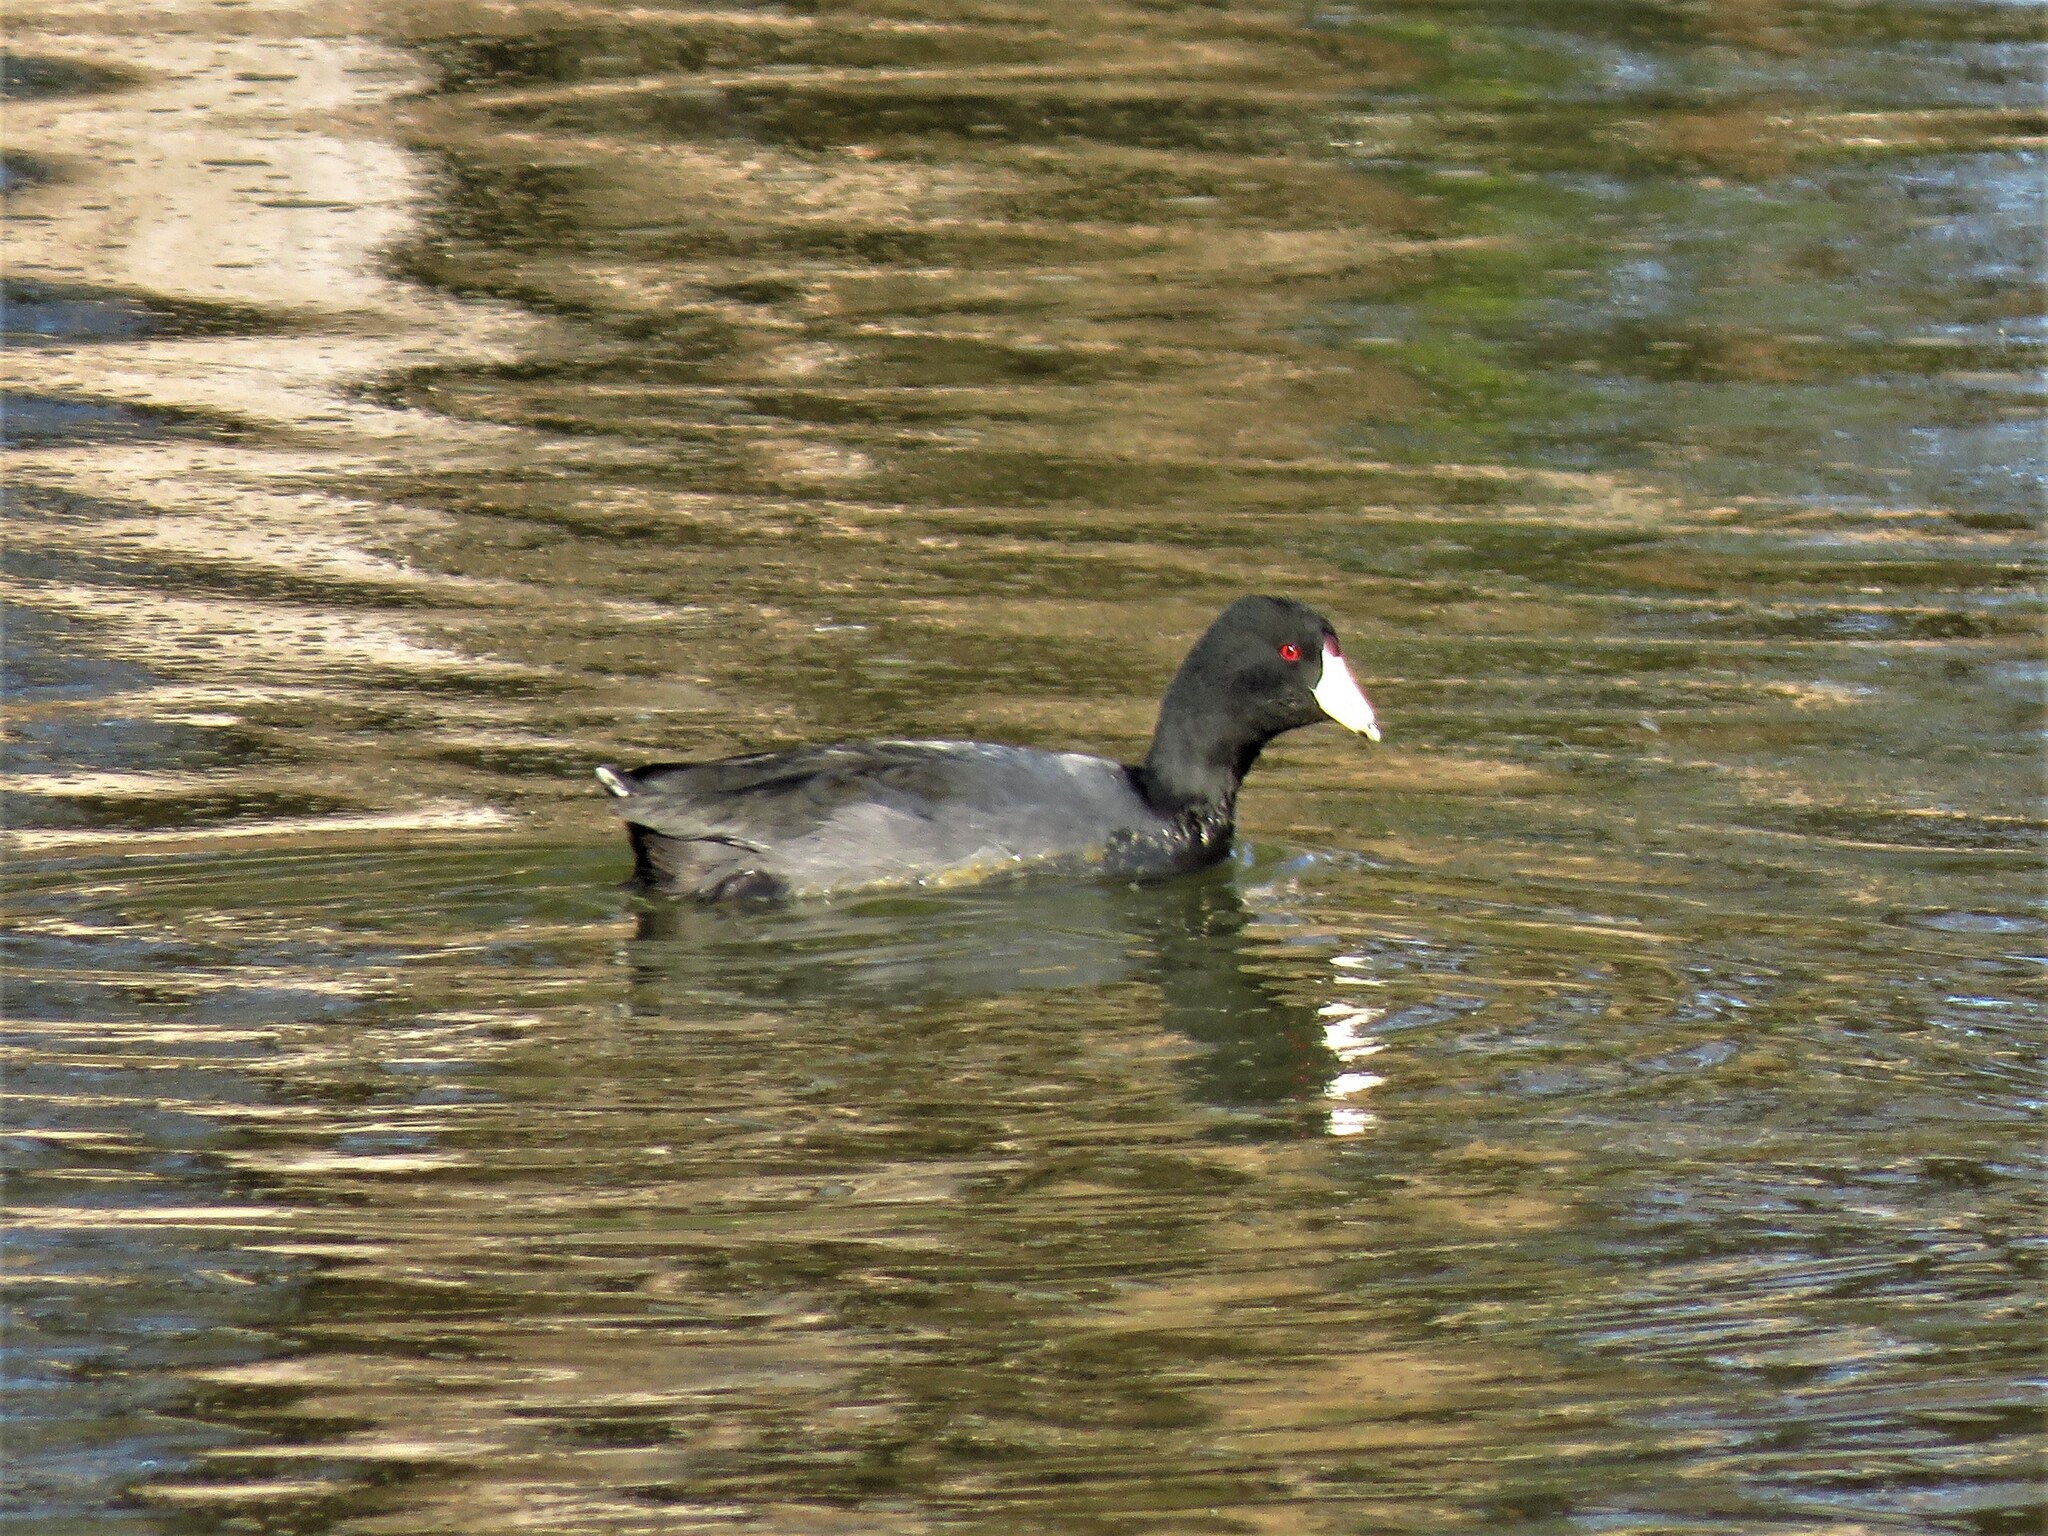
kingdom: Animalia
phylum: Chordata
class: Aves
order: Gruiformes
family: Rallidae
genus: Fulica
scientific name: Fulica americana
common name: American coot
